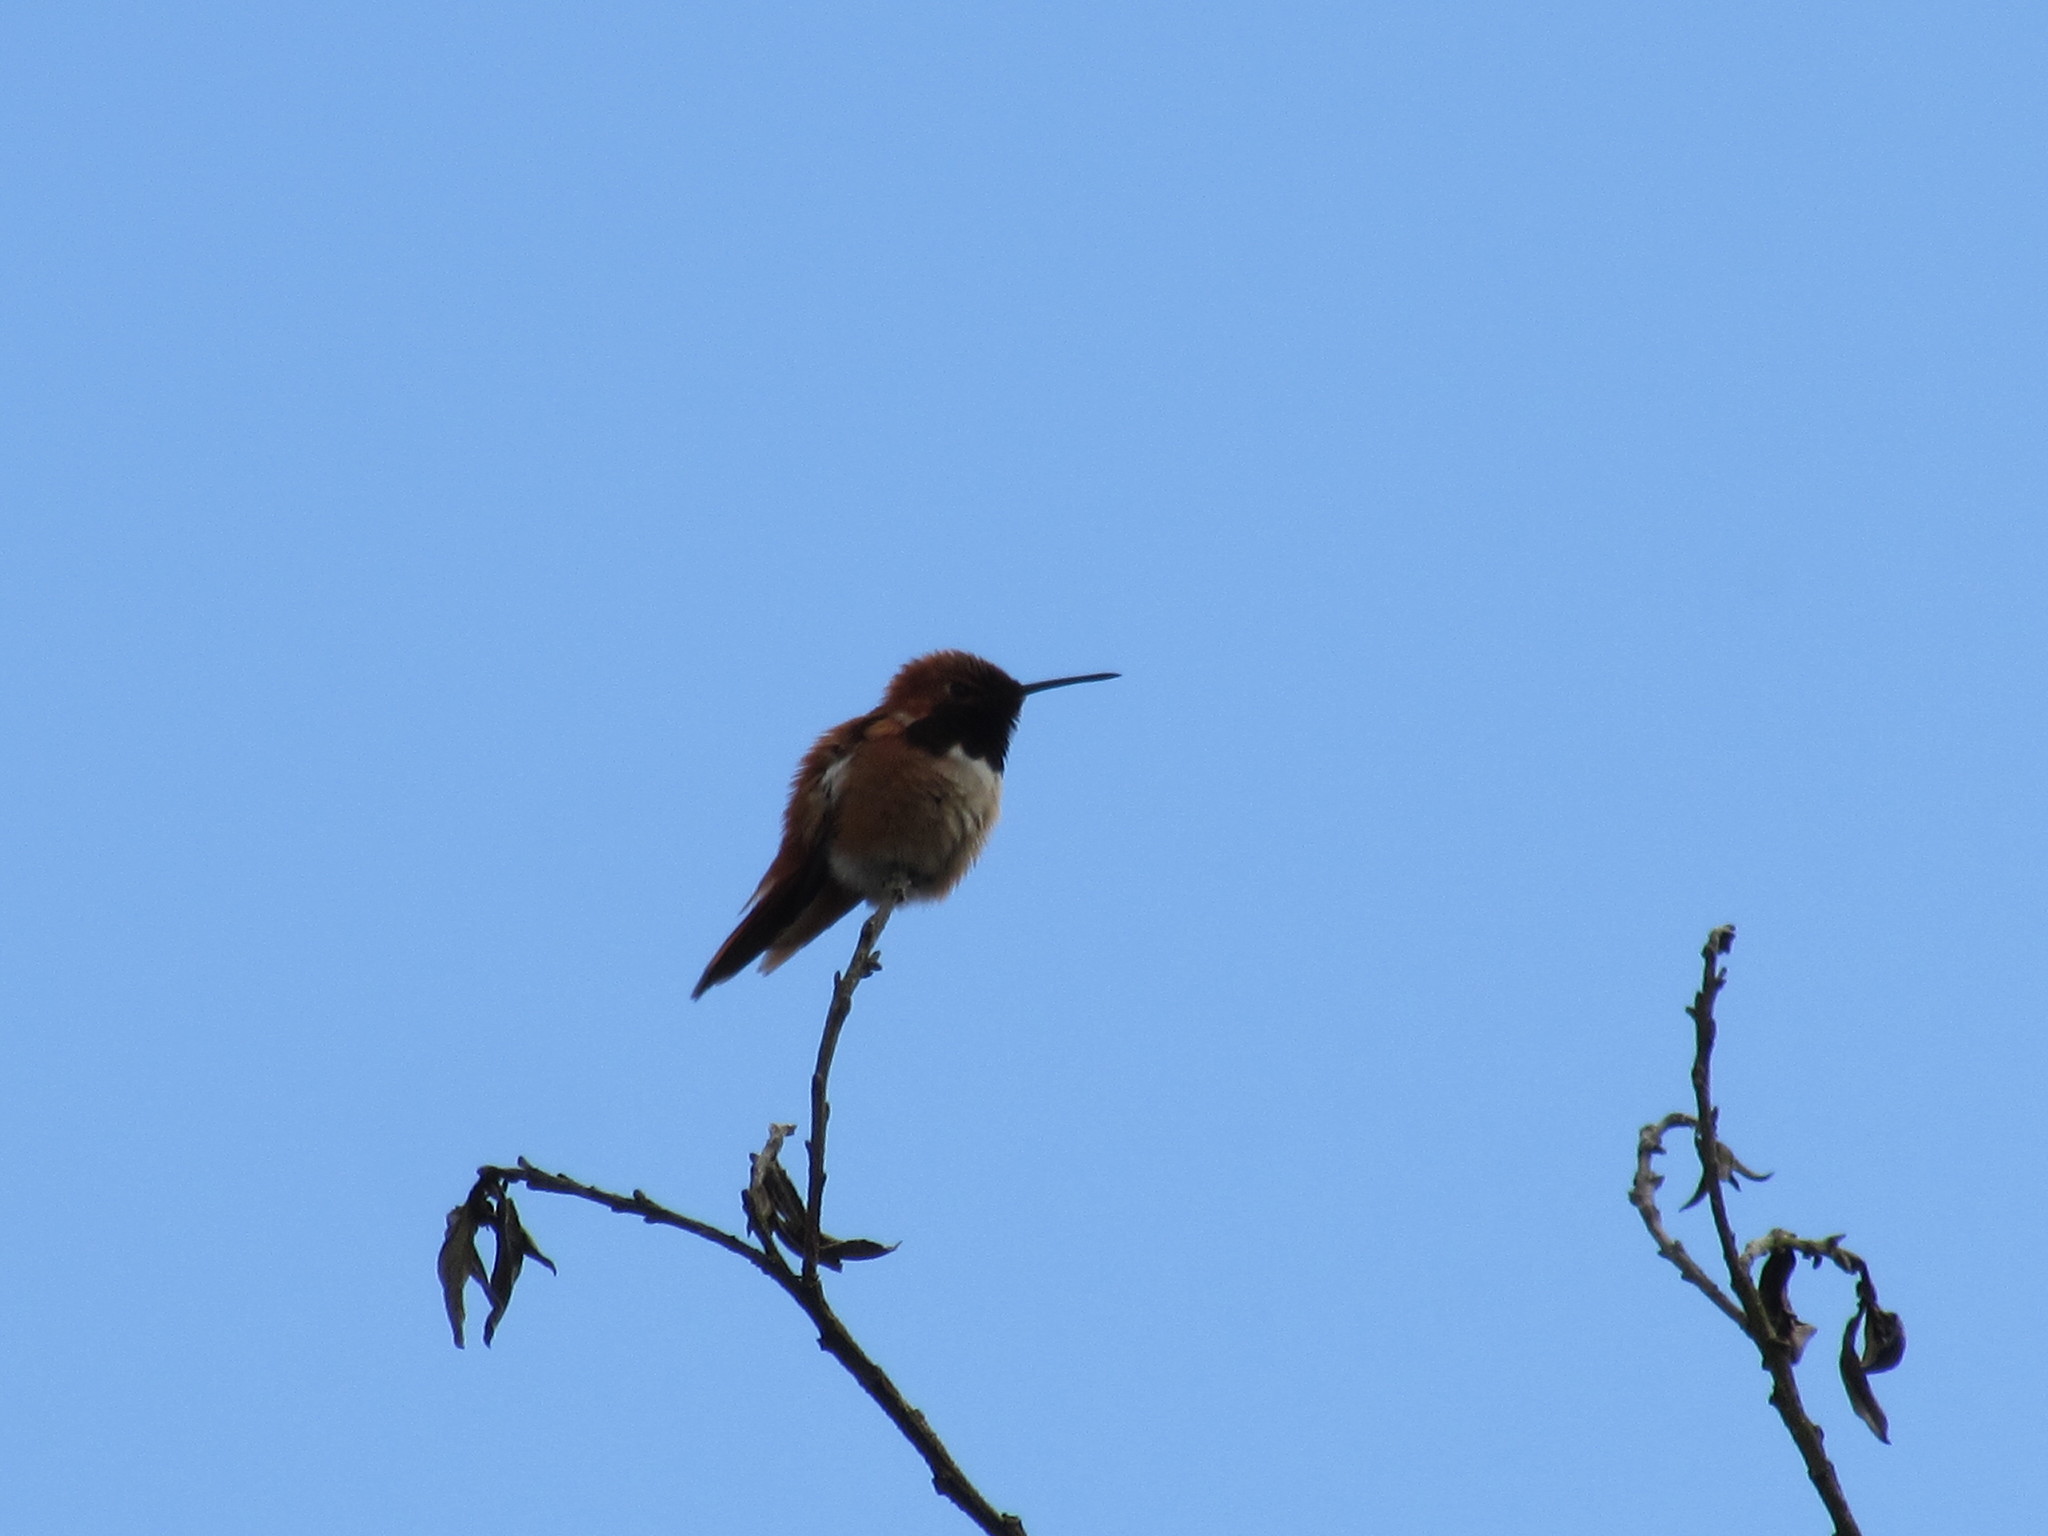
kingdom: Animalia
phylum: Chordata
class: Aves
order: Apodiformes
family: Trochilidae
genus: Selasphorus
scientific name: Selasphorus rufus
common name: Rufous hummingbird
